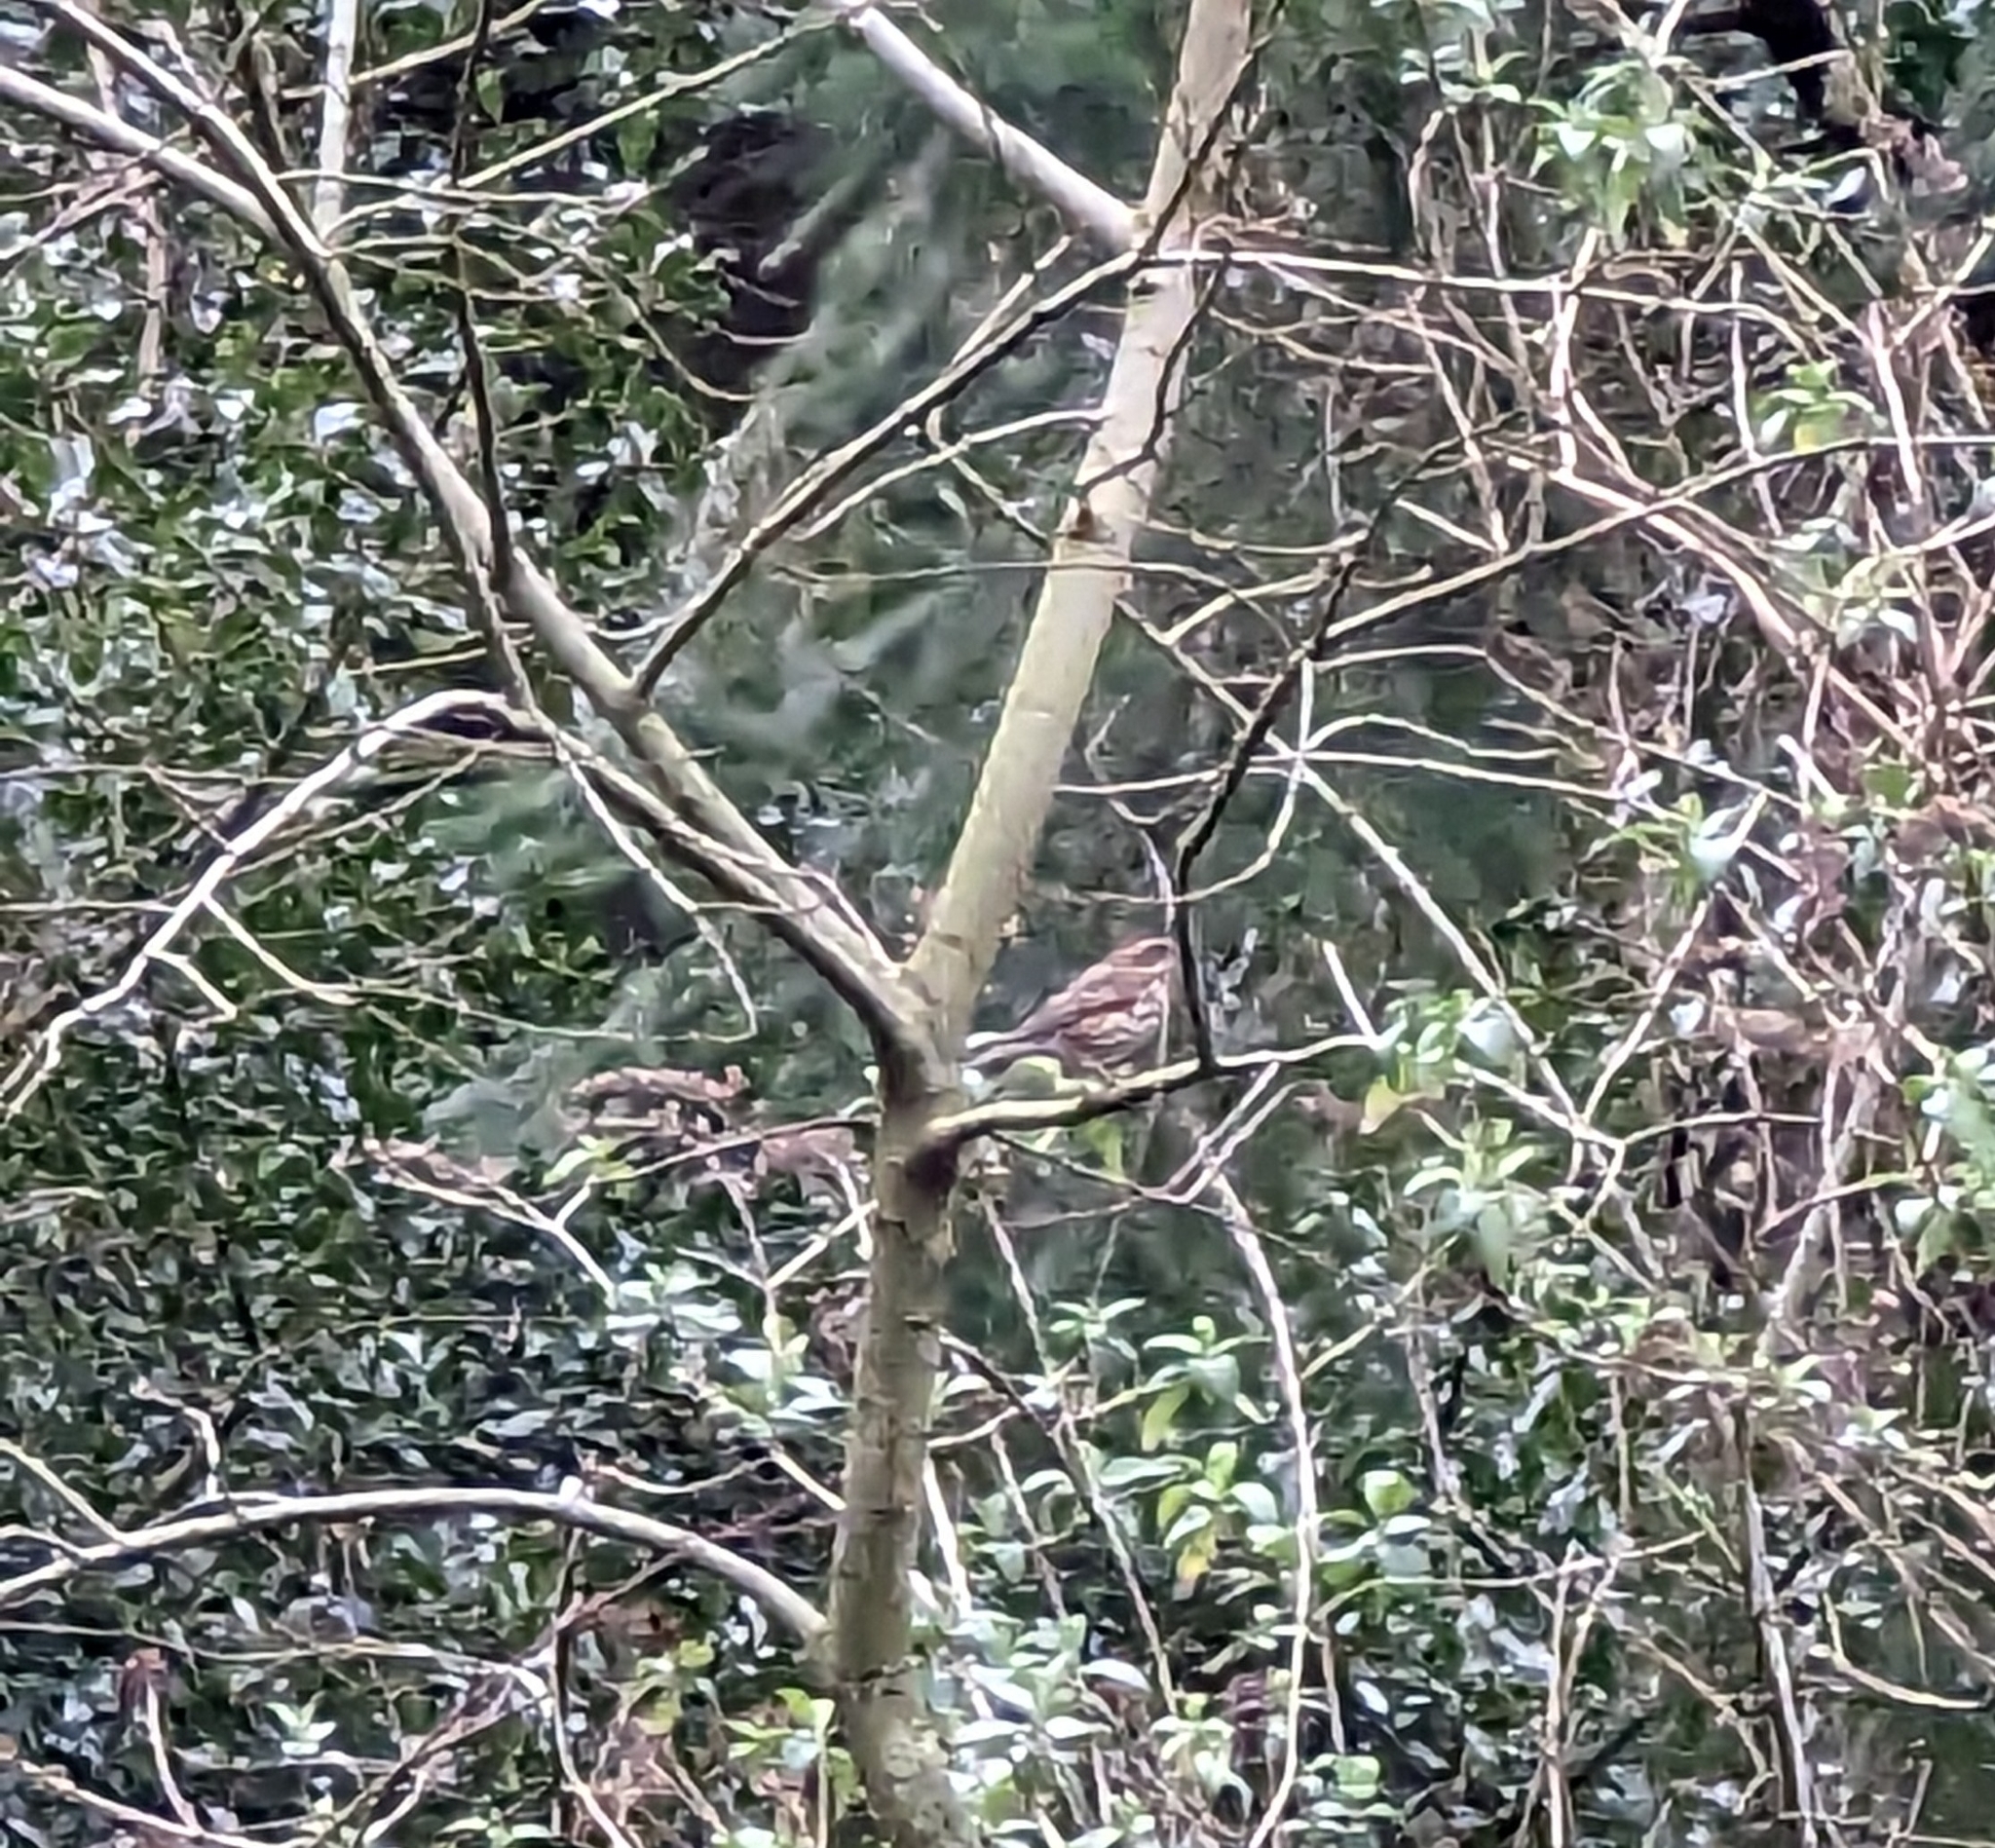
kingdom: Animalia
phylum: Chordata
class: Aves
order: Passeriformes
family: Turdidae
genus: Turdus
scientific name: Turdus iliacus
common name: Redwing
